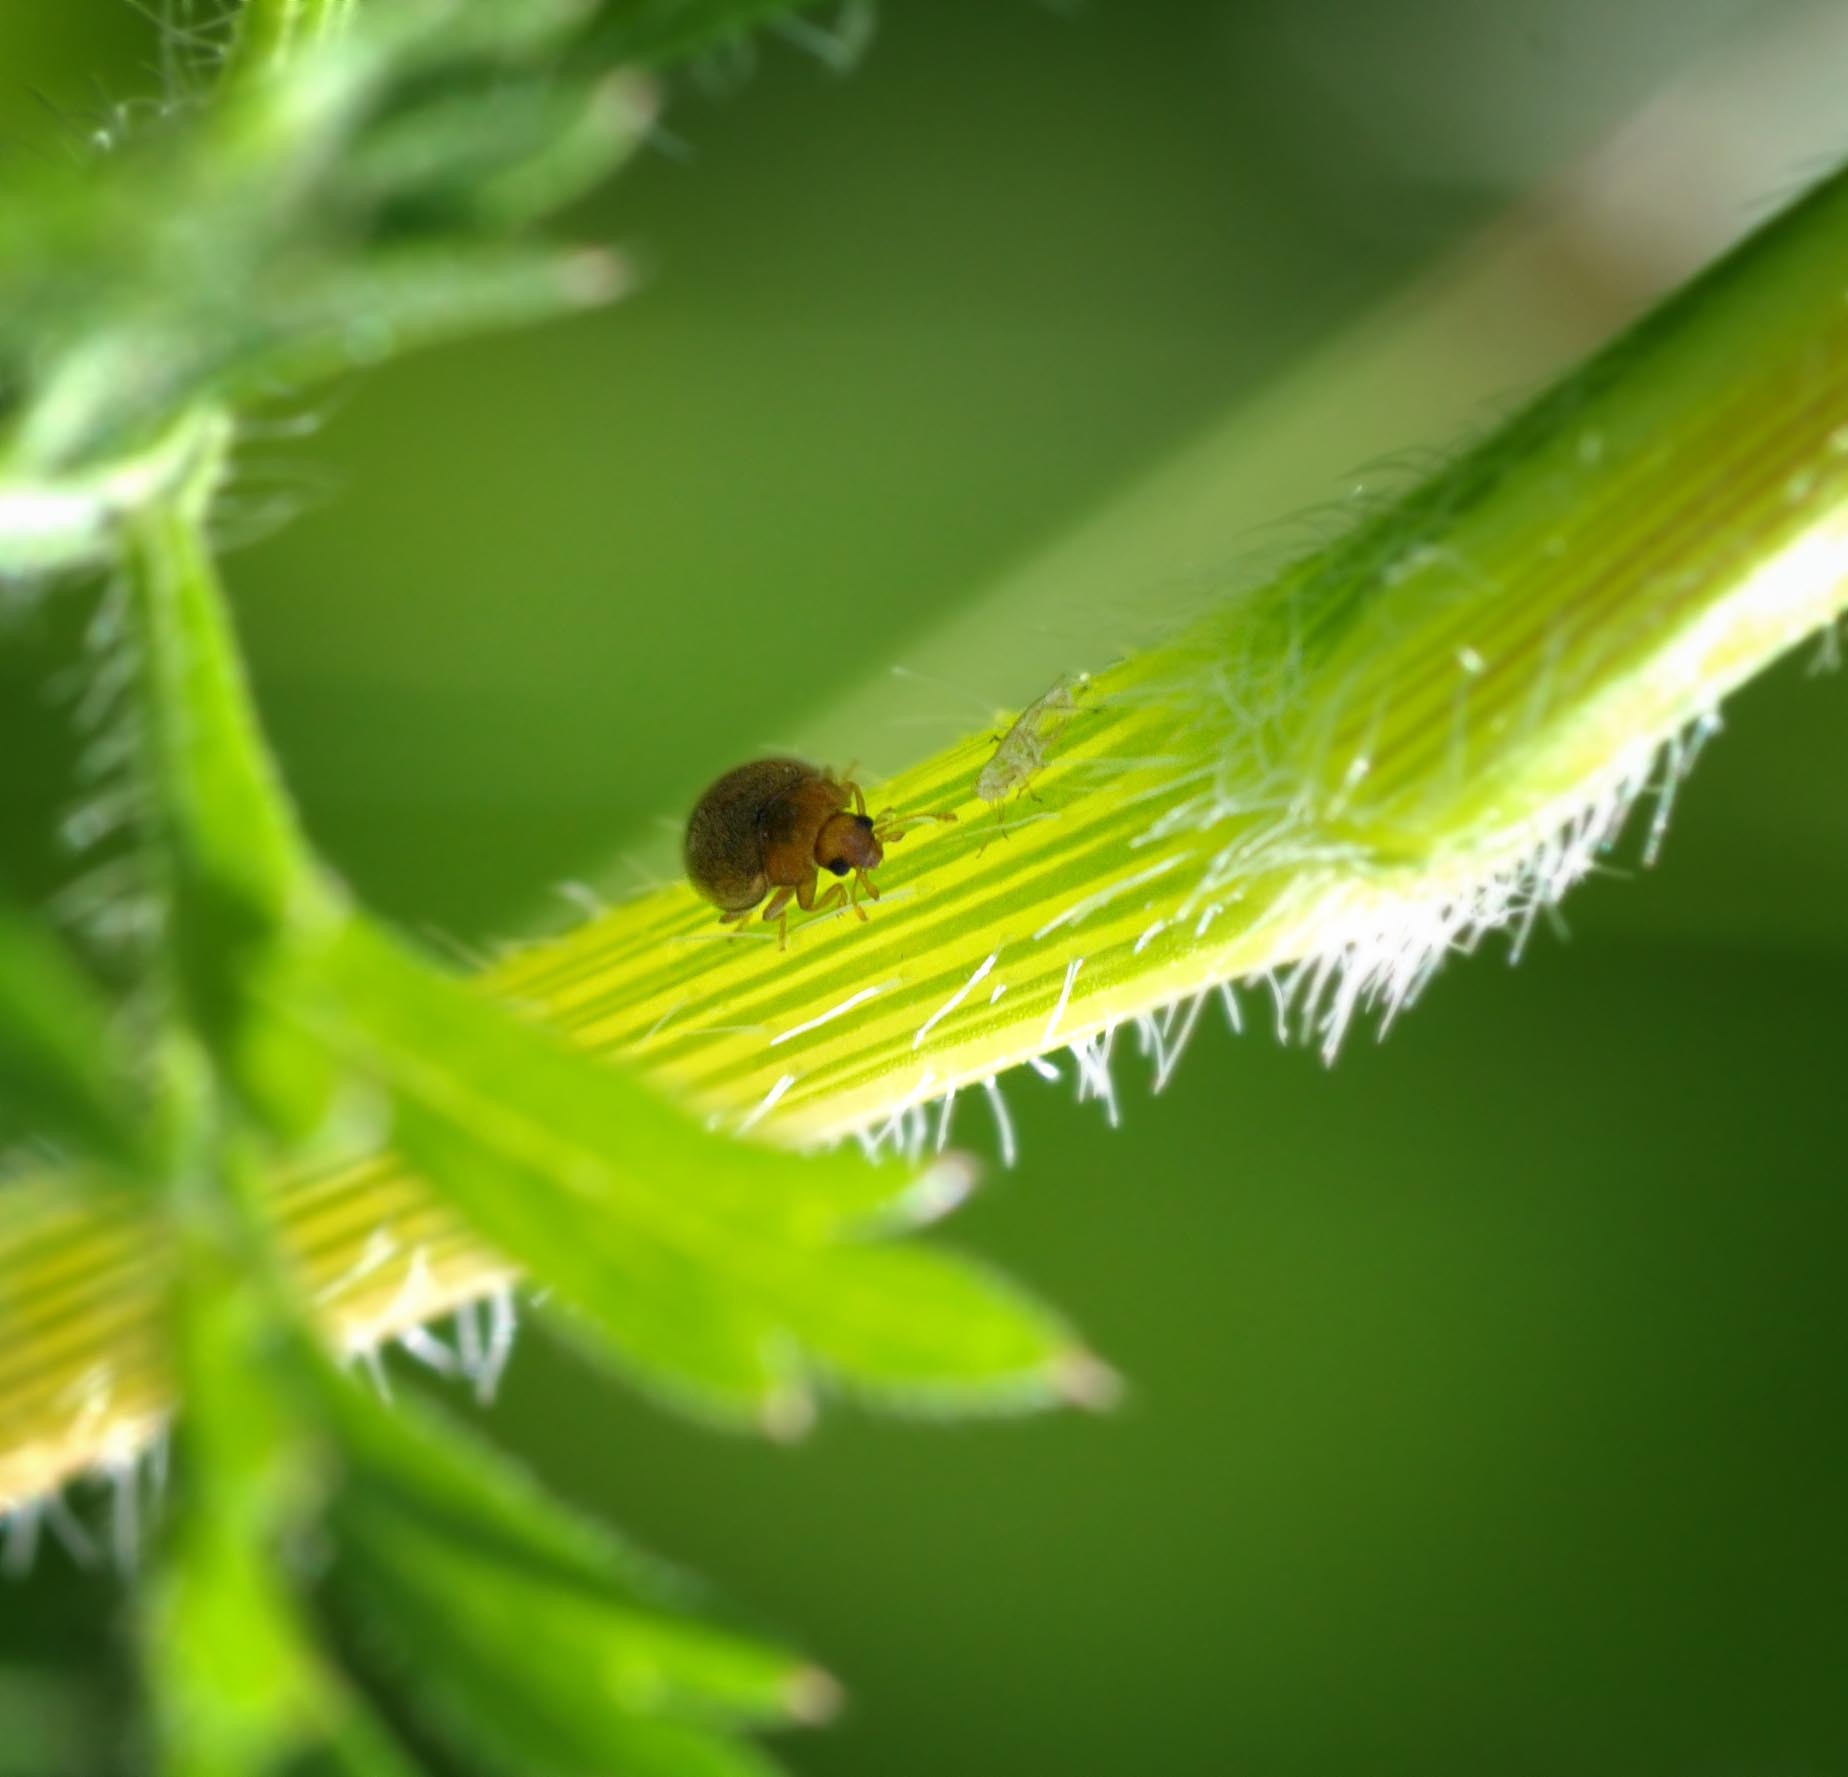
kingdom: Animalia
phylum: Arthropoda
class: Insecta
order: Coleoptera
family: Coccinellidae
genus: Rhyzobius
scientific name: Rhyzobius litura
